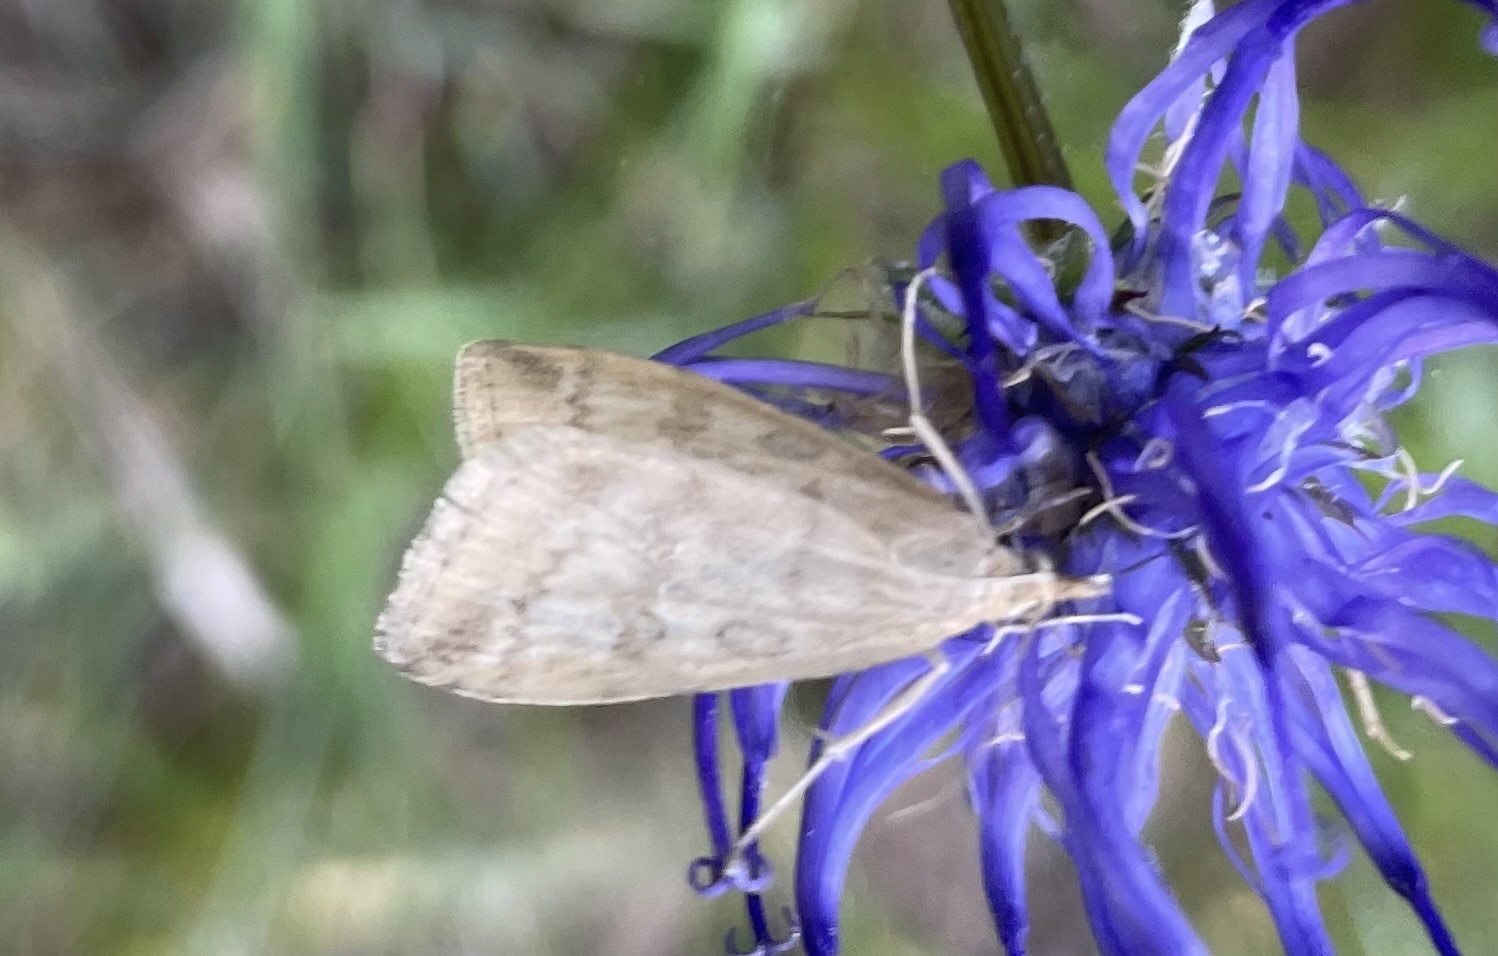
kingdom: Animalia
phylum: Arthropoda
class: Insecta
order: Lepidoptera
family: Crambidae
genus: Udea
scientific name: Udea nebulalis
